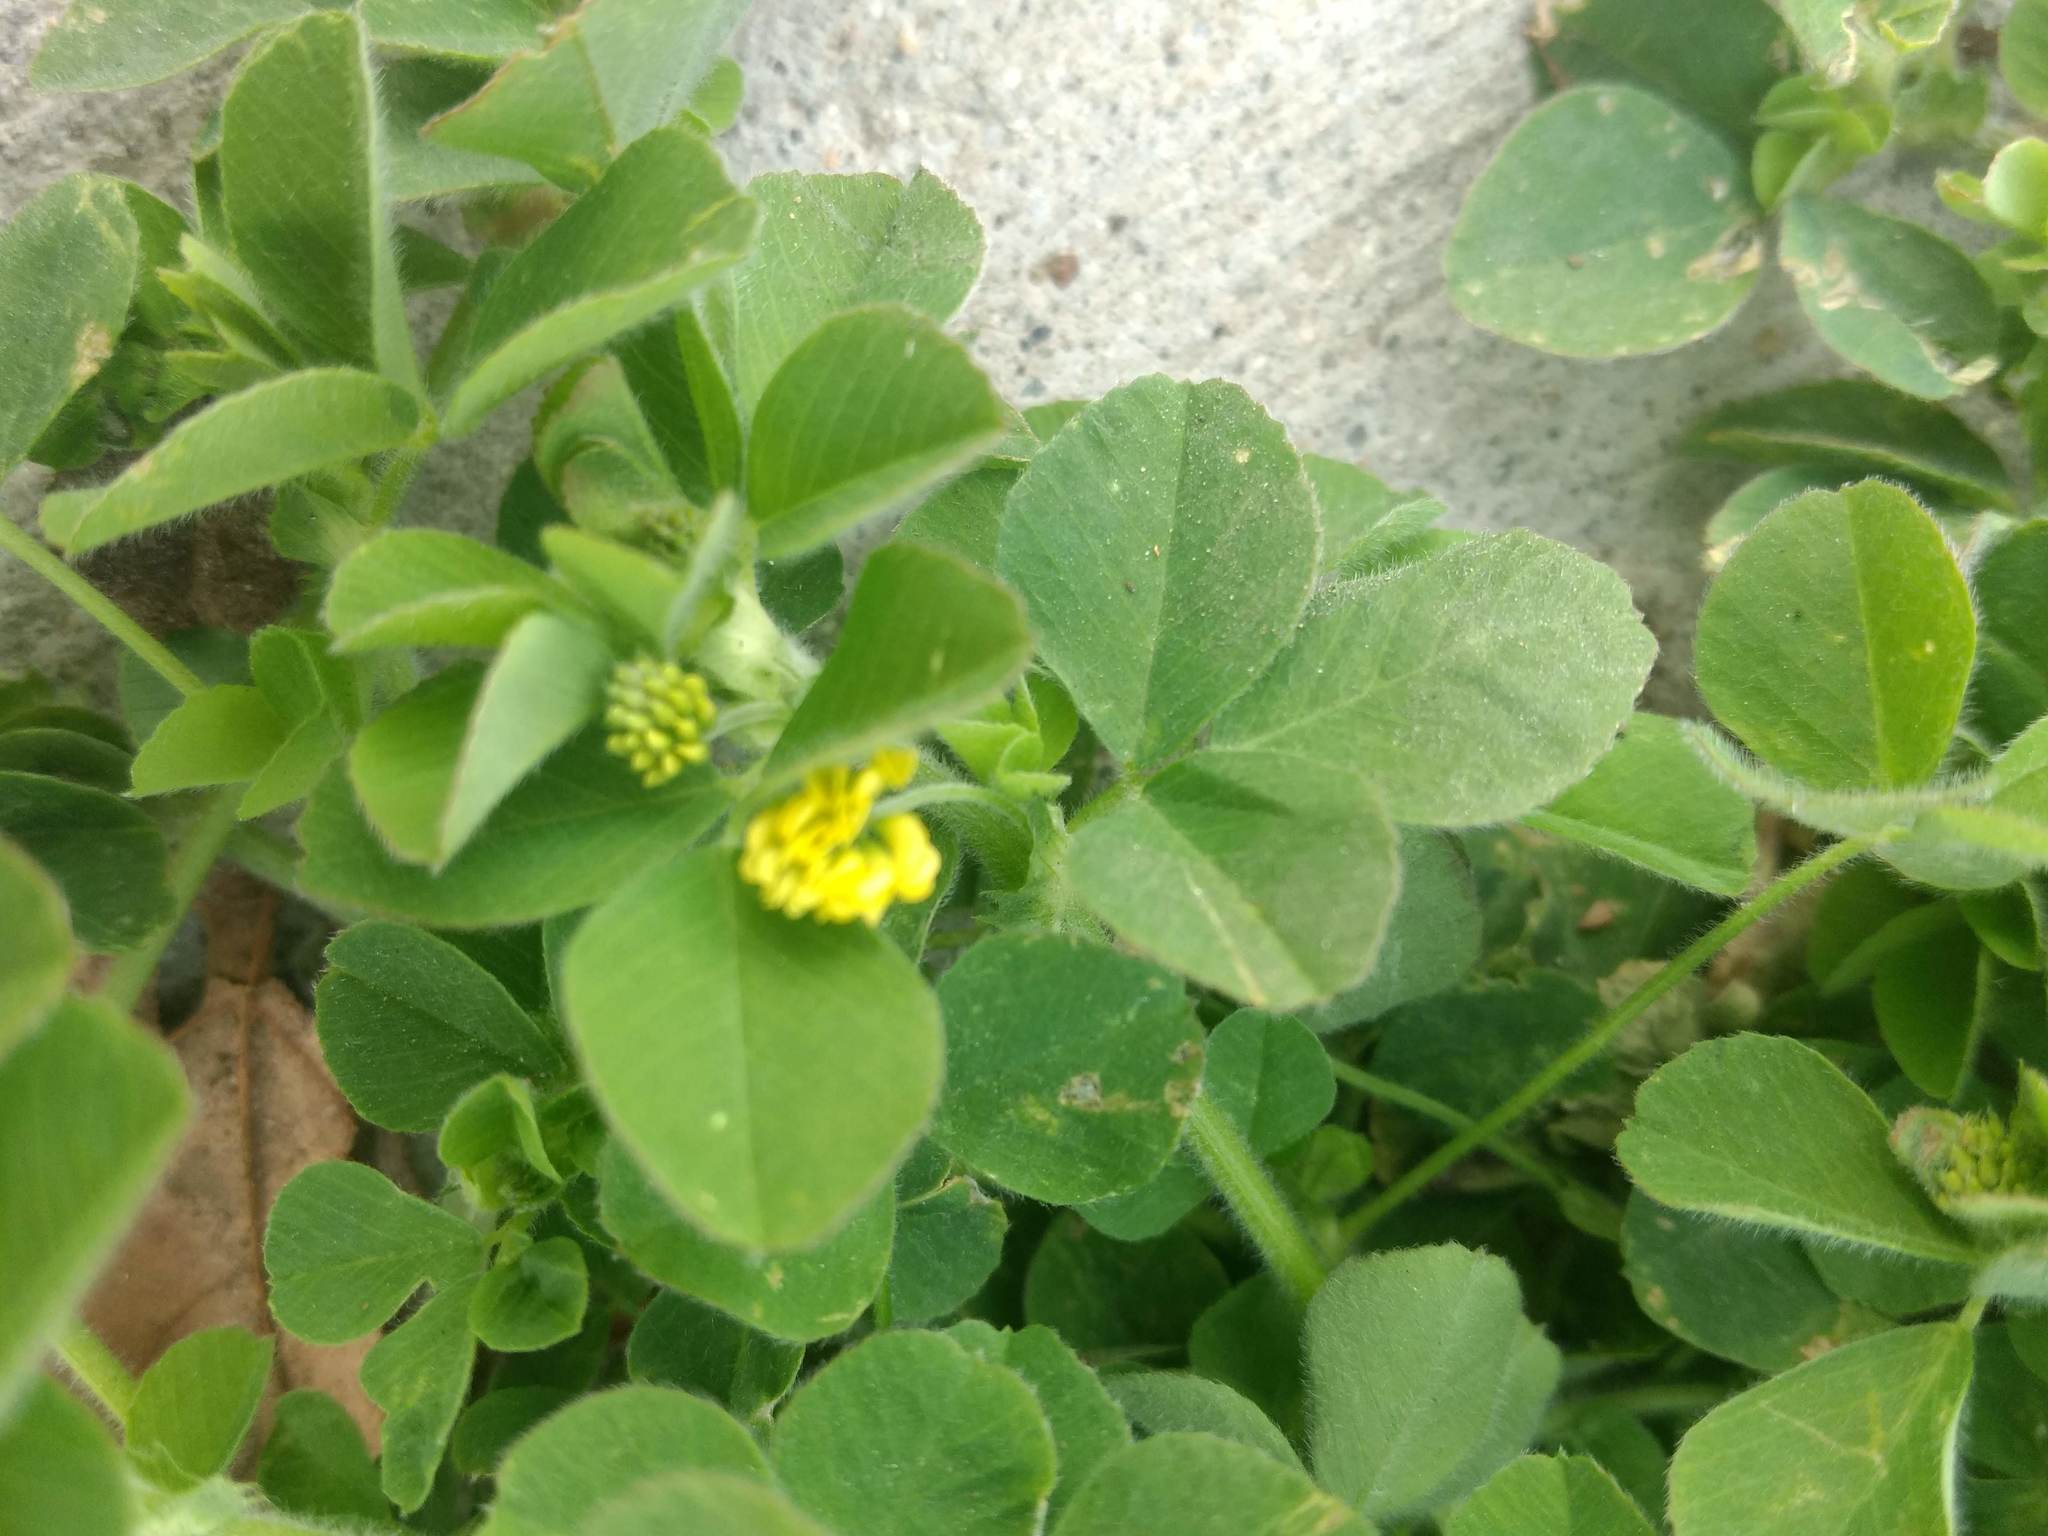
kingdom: Plantae
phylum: Tracheophyta
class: Magnoliopsida
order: Fabales
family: Fabaceae
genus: Medicago
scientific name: Medicago lupulina
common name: Black medick
